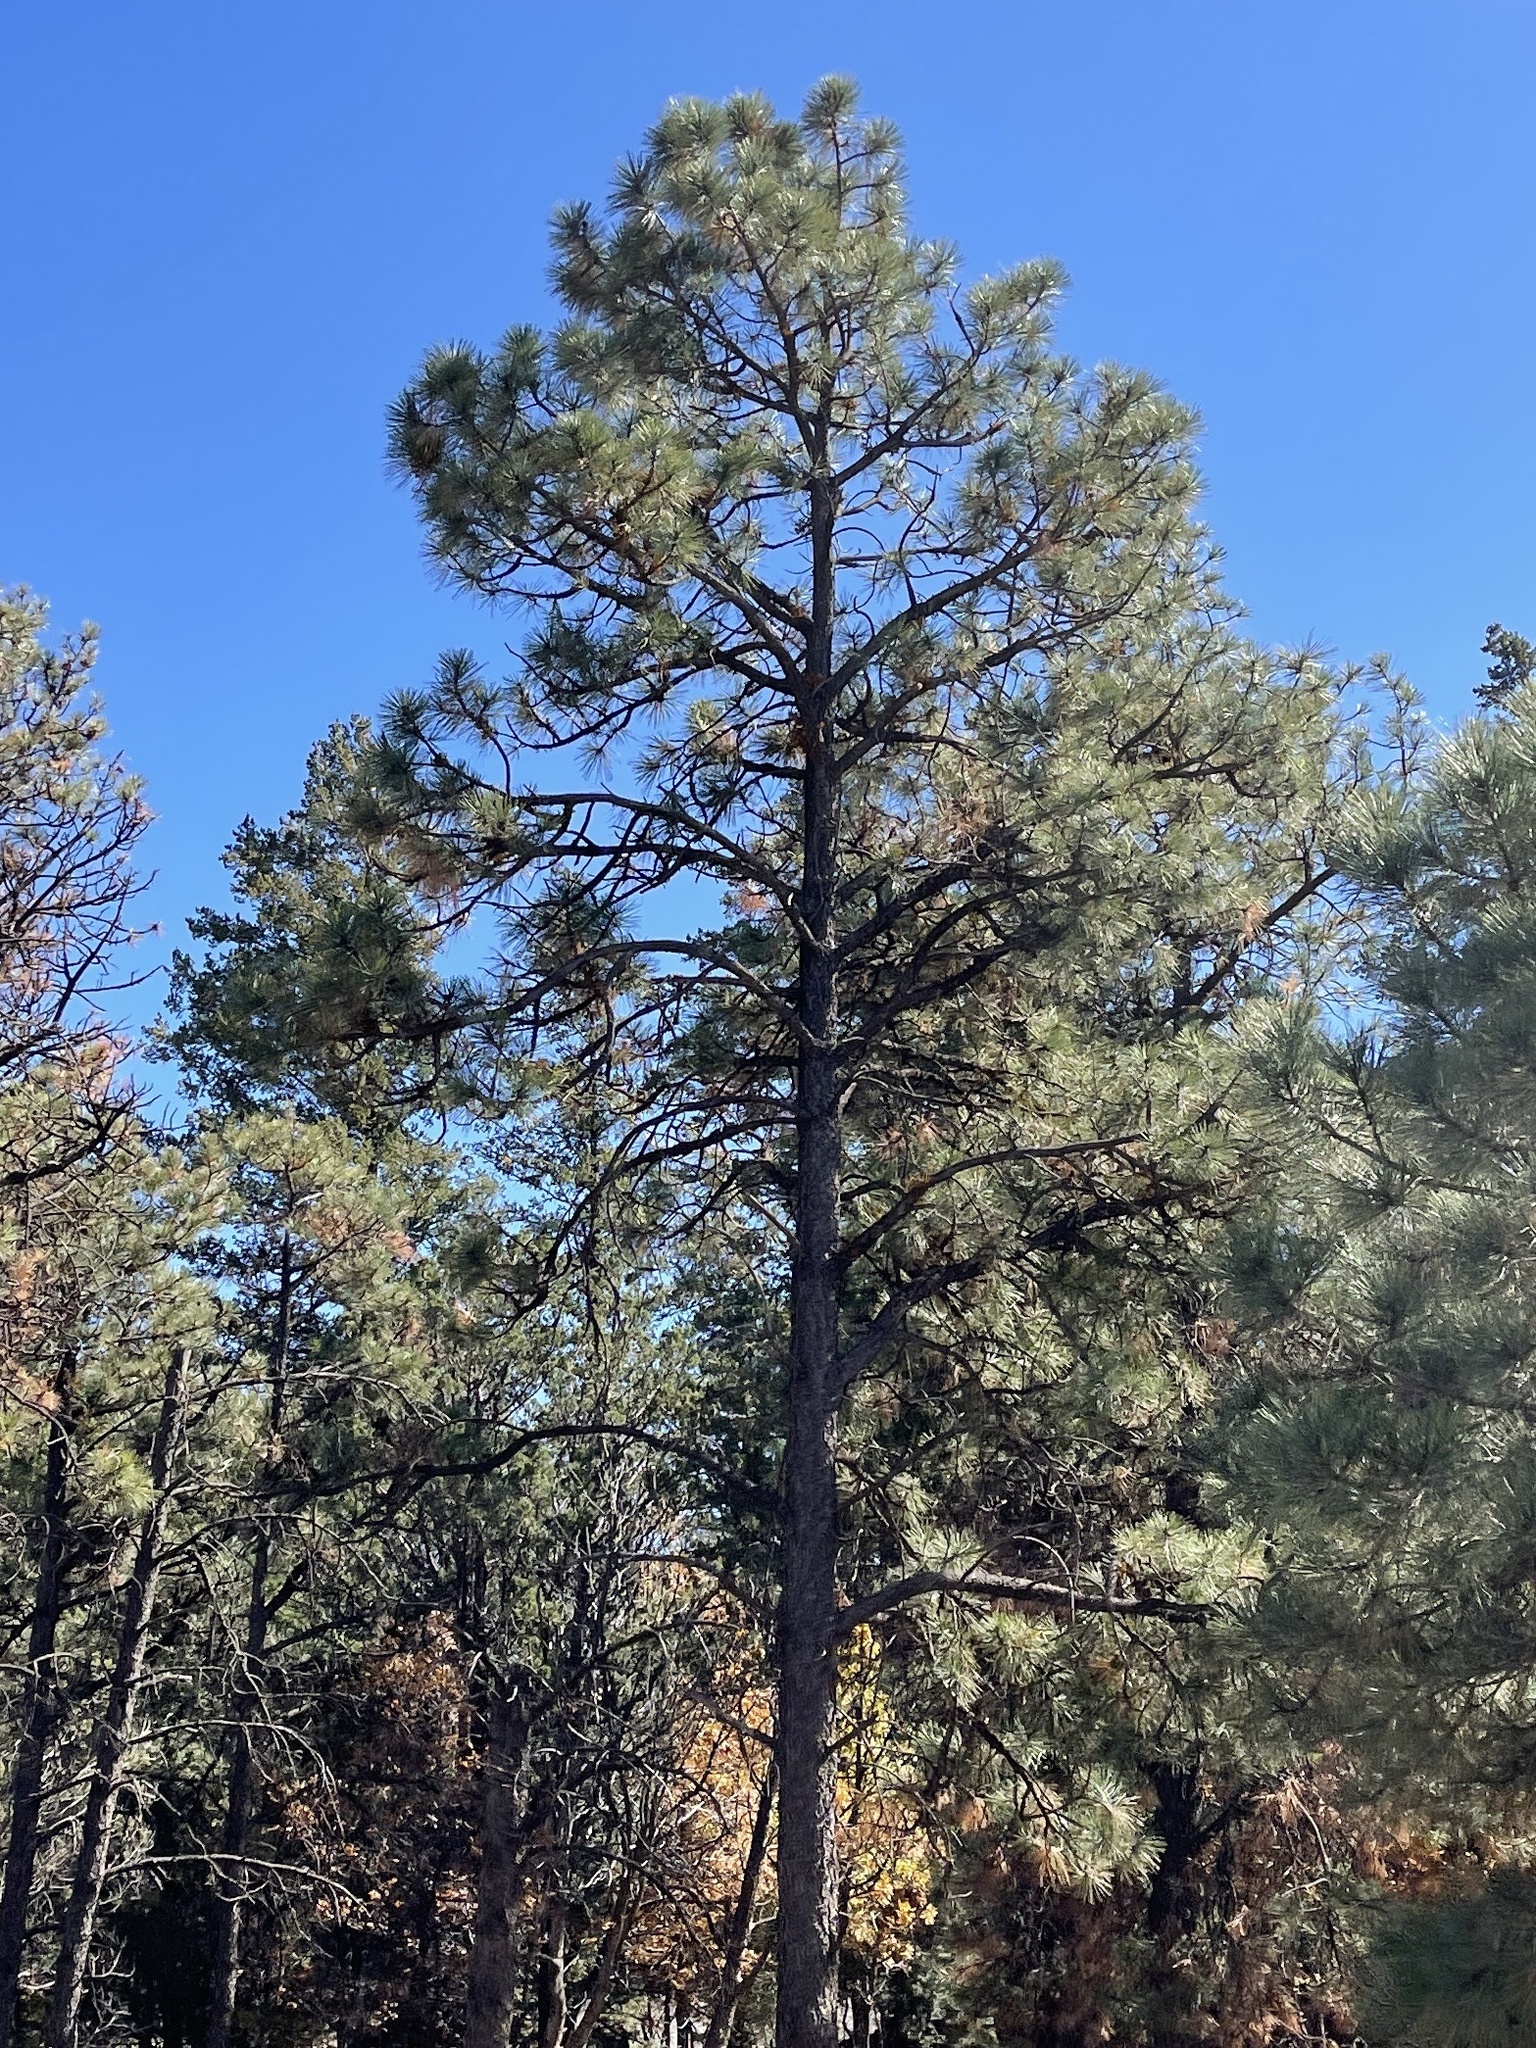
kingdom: Plantae
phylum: Tracheophyta
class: Pinopsida
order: Pinales
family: Pinaceae
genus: Pinus
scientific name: Pinus ponderosa
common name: Western yellow-pine
